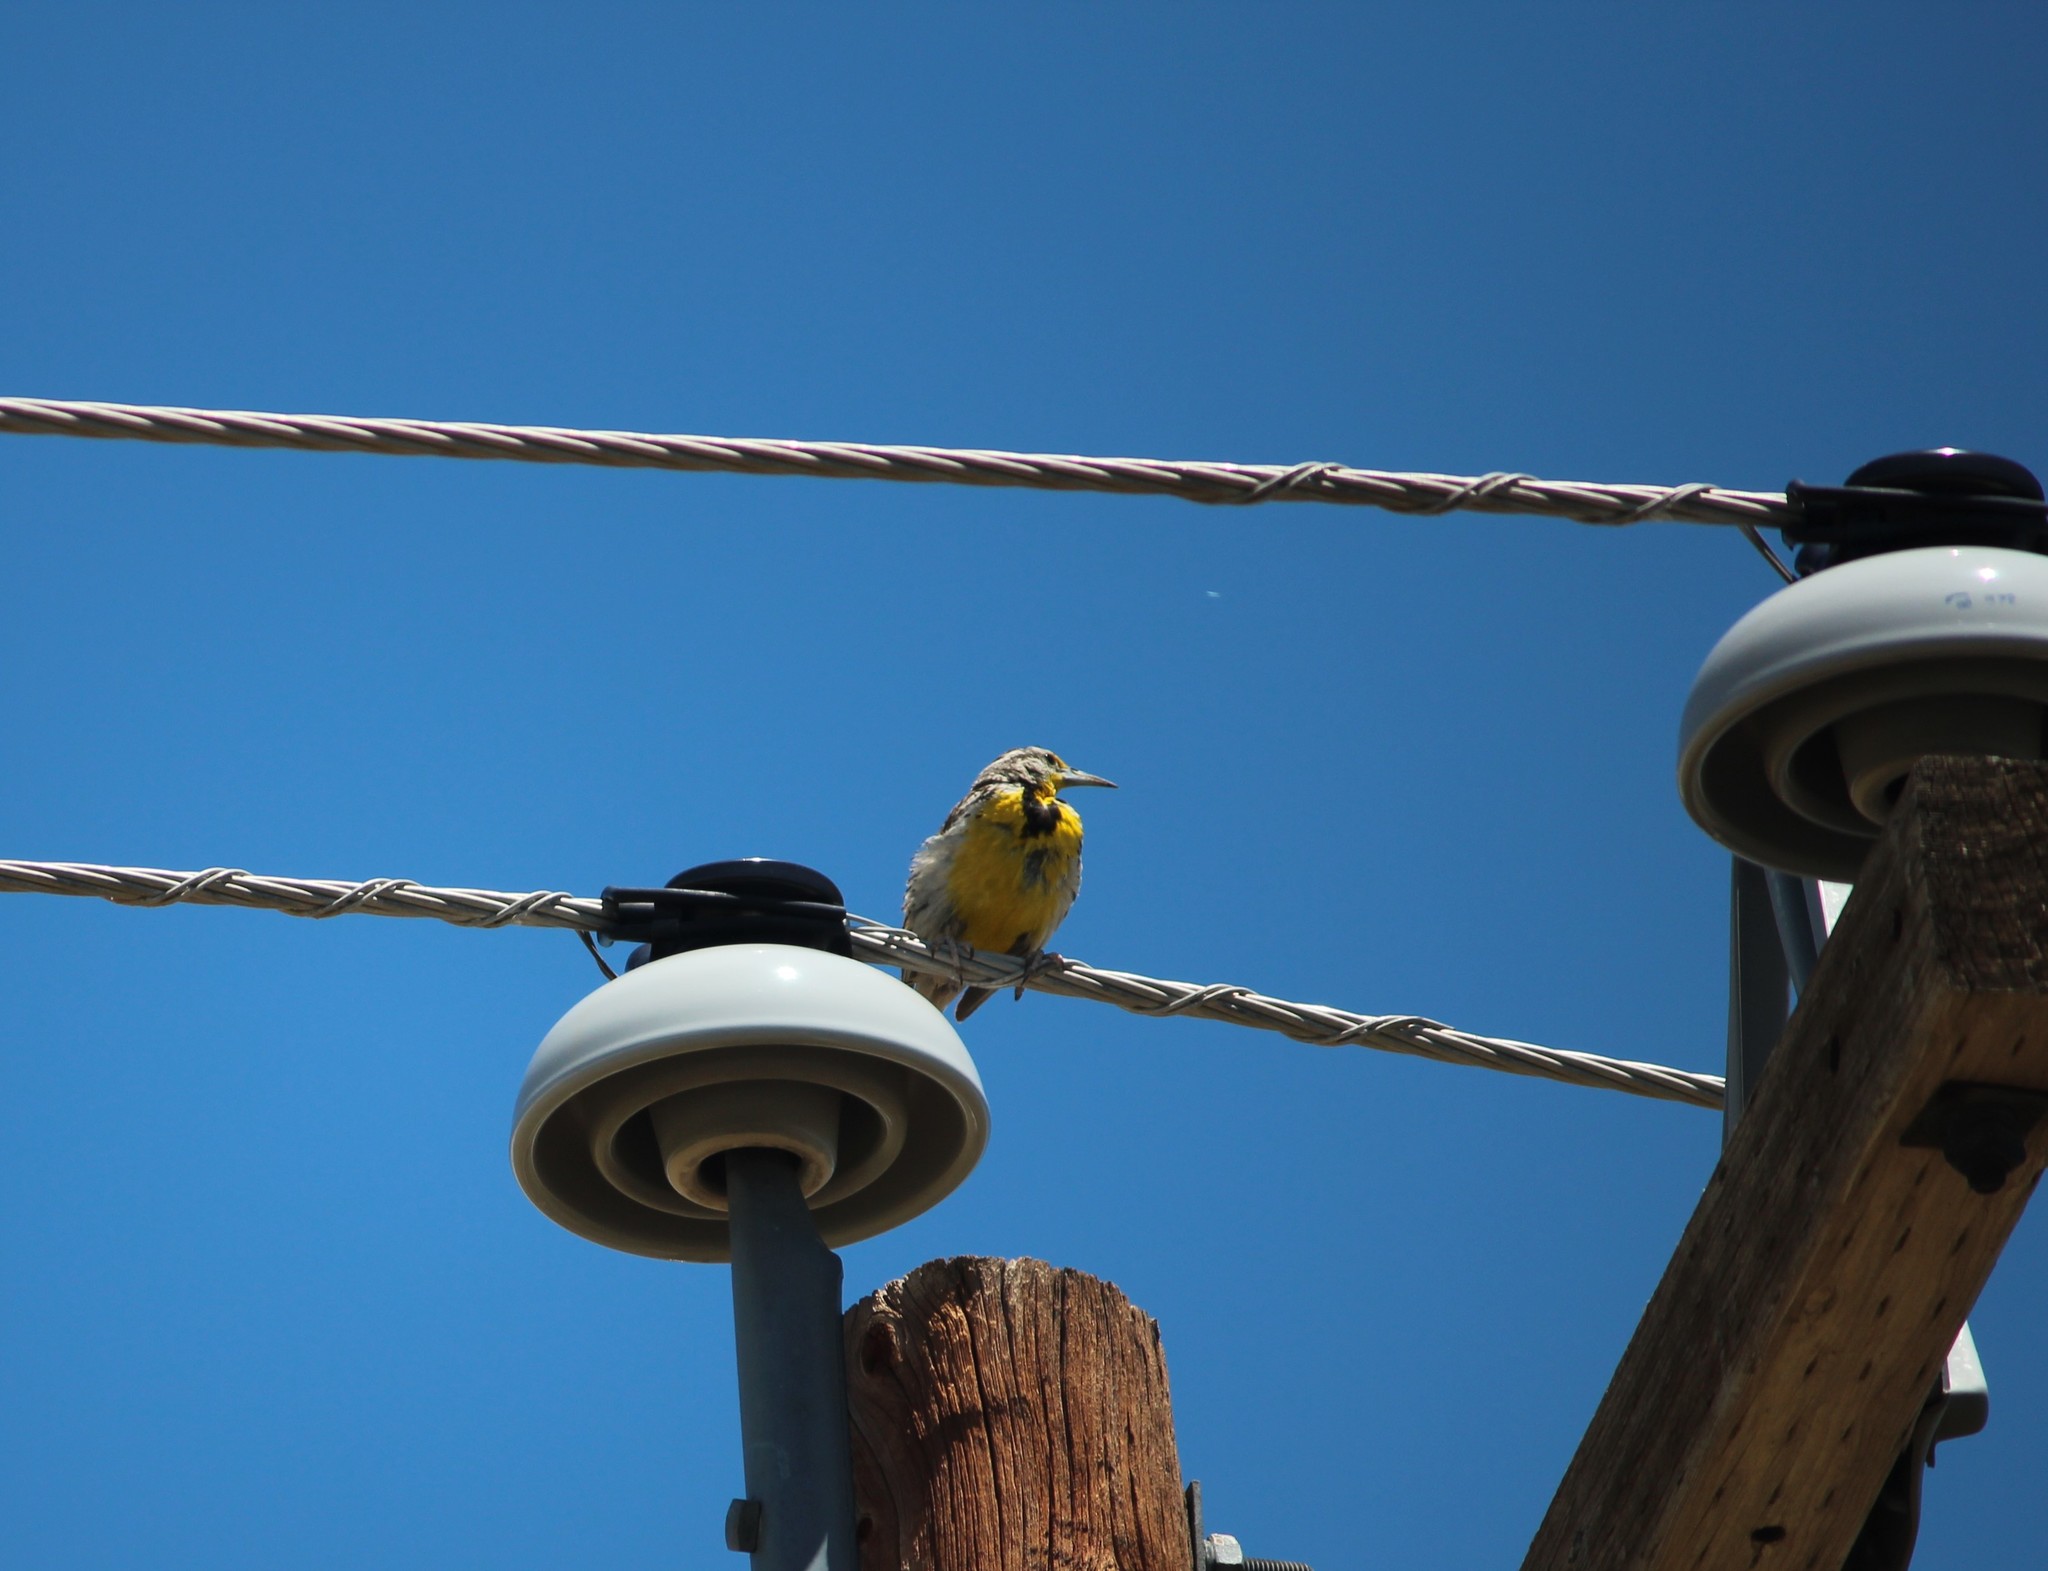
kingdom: Animalia
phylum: Chordata
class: Aves
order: Passeriformes
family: Icteridae
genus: Sturnella
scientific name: Sturnella neglecta
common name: Western meadowlark
